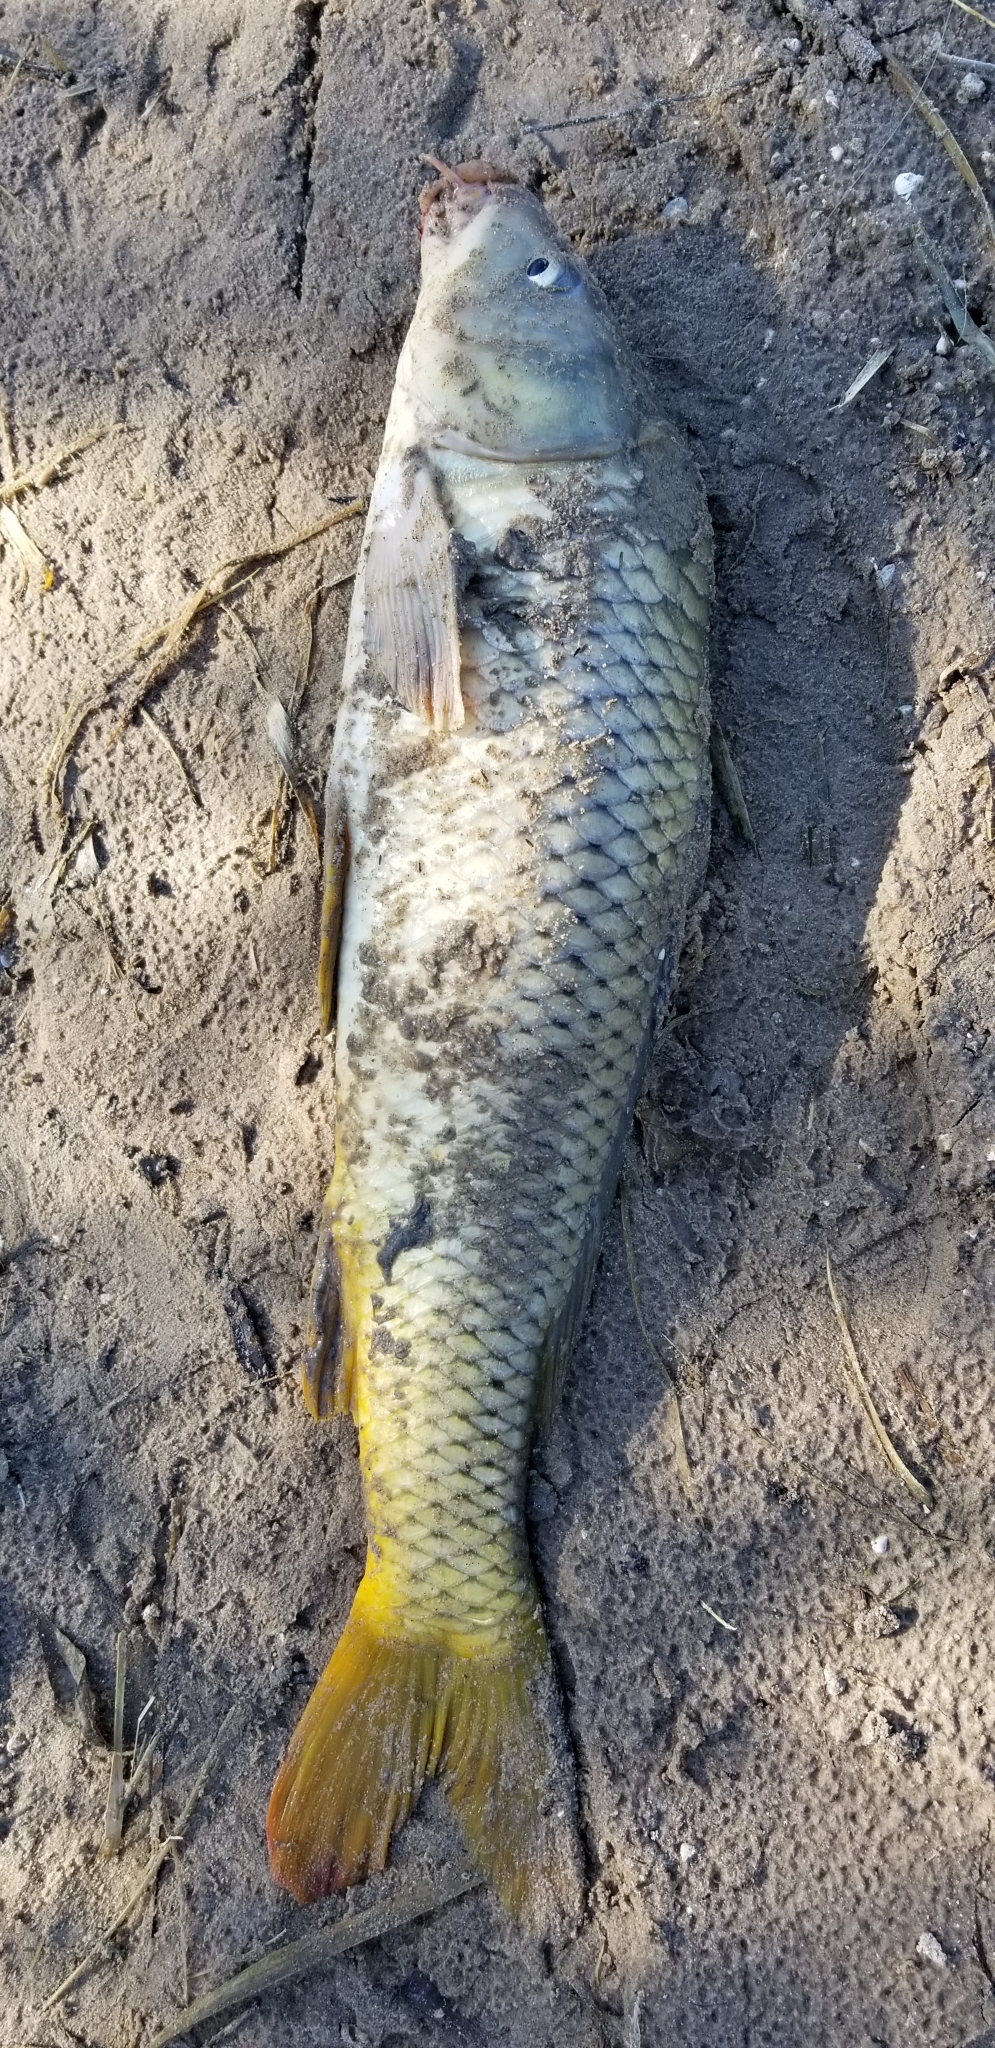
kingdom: Animalia
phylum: Chordata
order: Cypriniformes
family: Cyprinidae
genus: Cyprinus
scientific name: Cyprinus carpio
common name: Common carp
